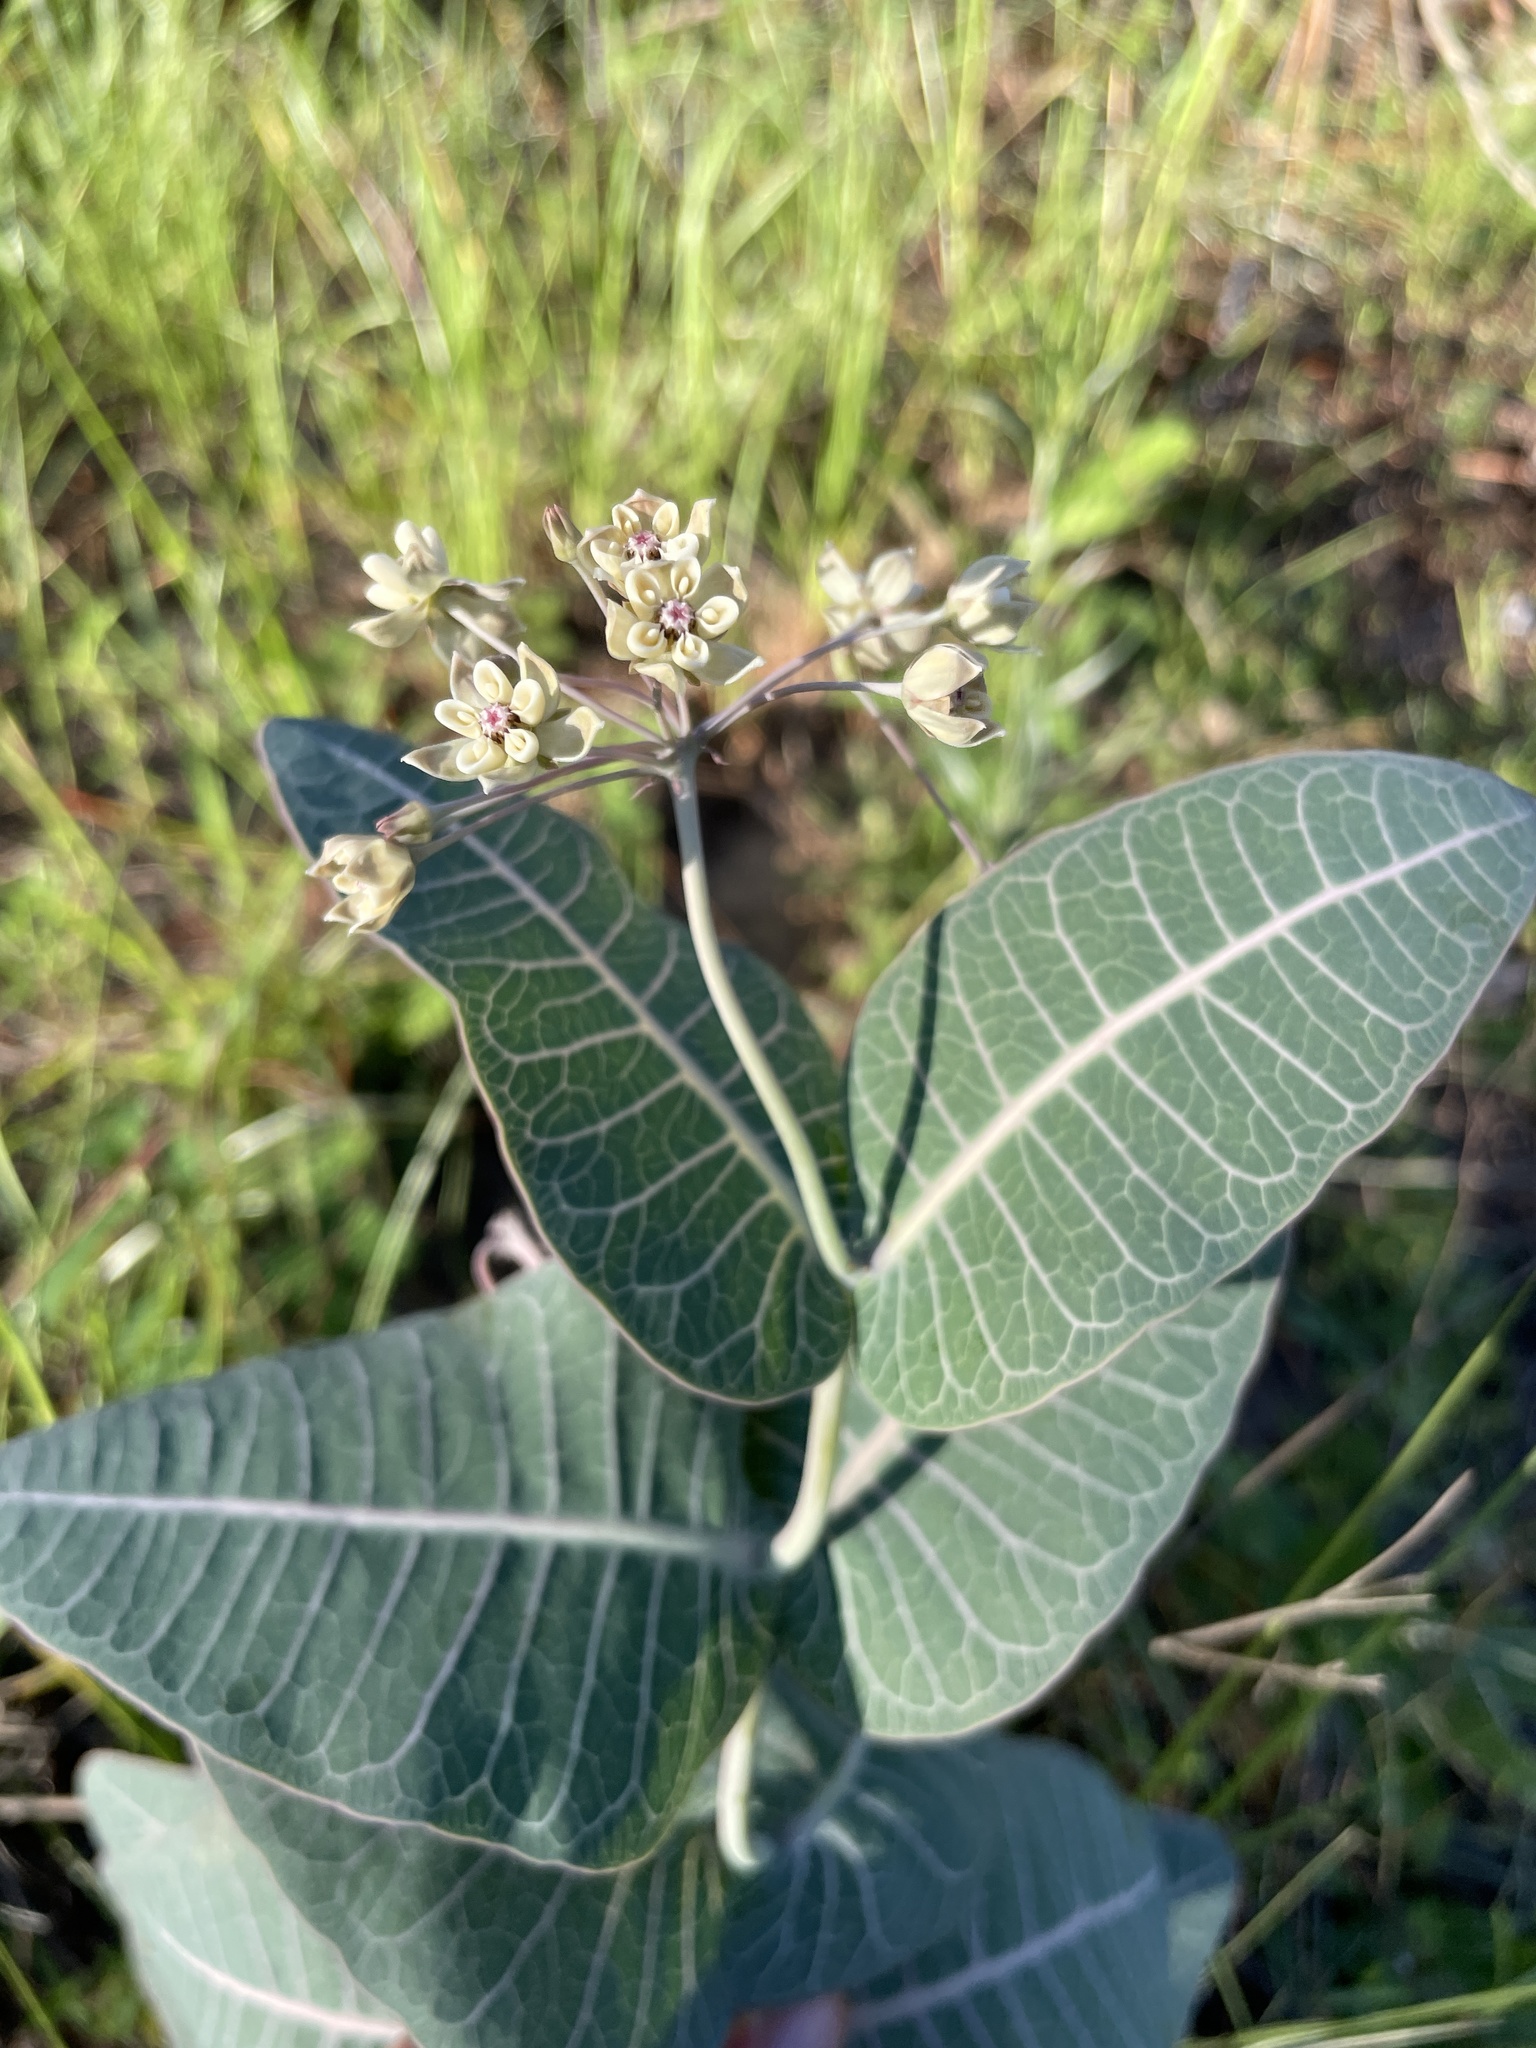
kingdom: Plantae
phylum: Tracheophyta
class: Magnoliopsida
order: Gentianales
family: Apocynaceae
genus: Asclepias
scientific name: Asclepias humistrata
